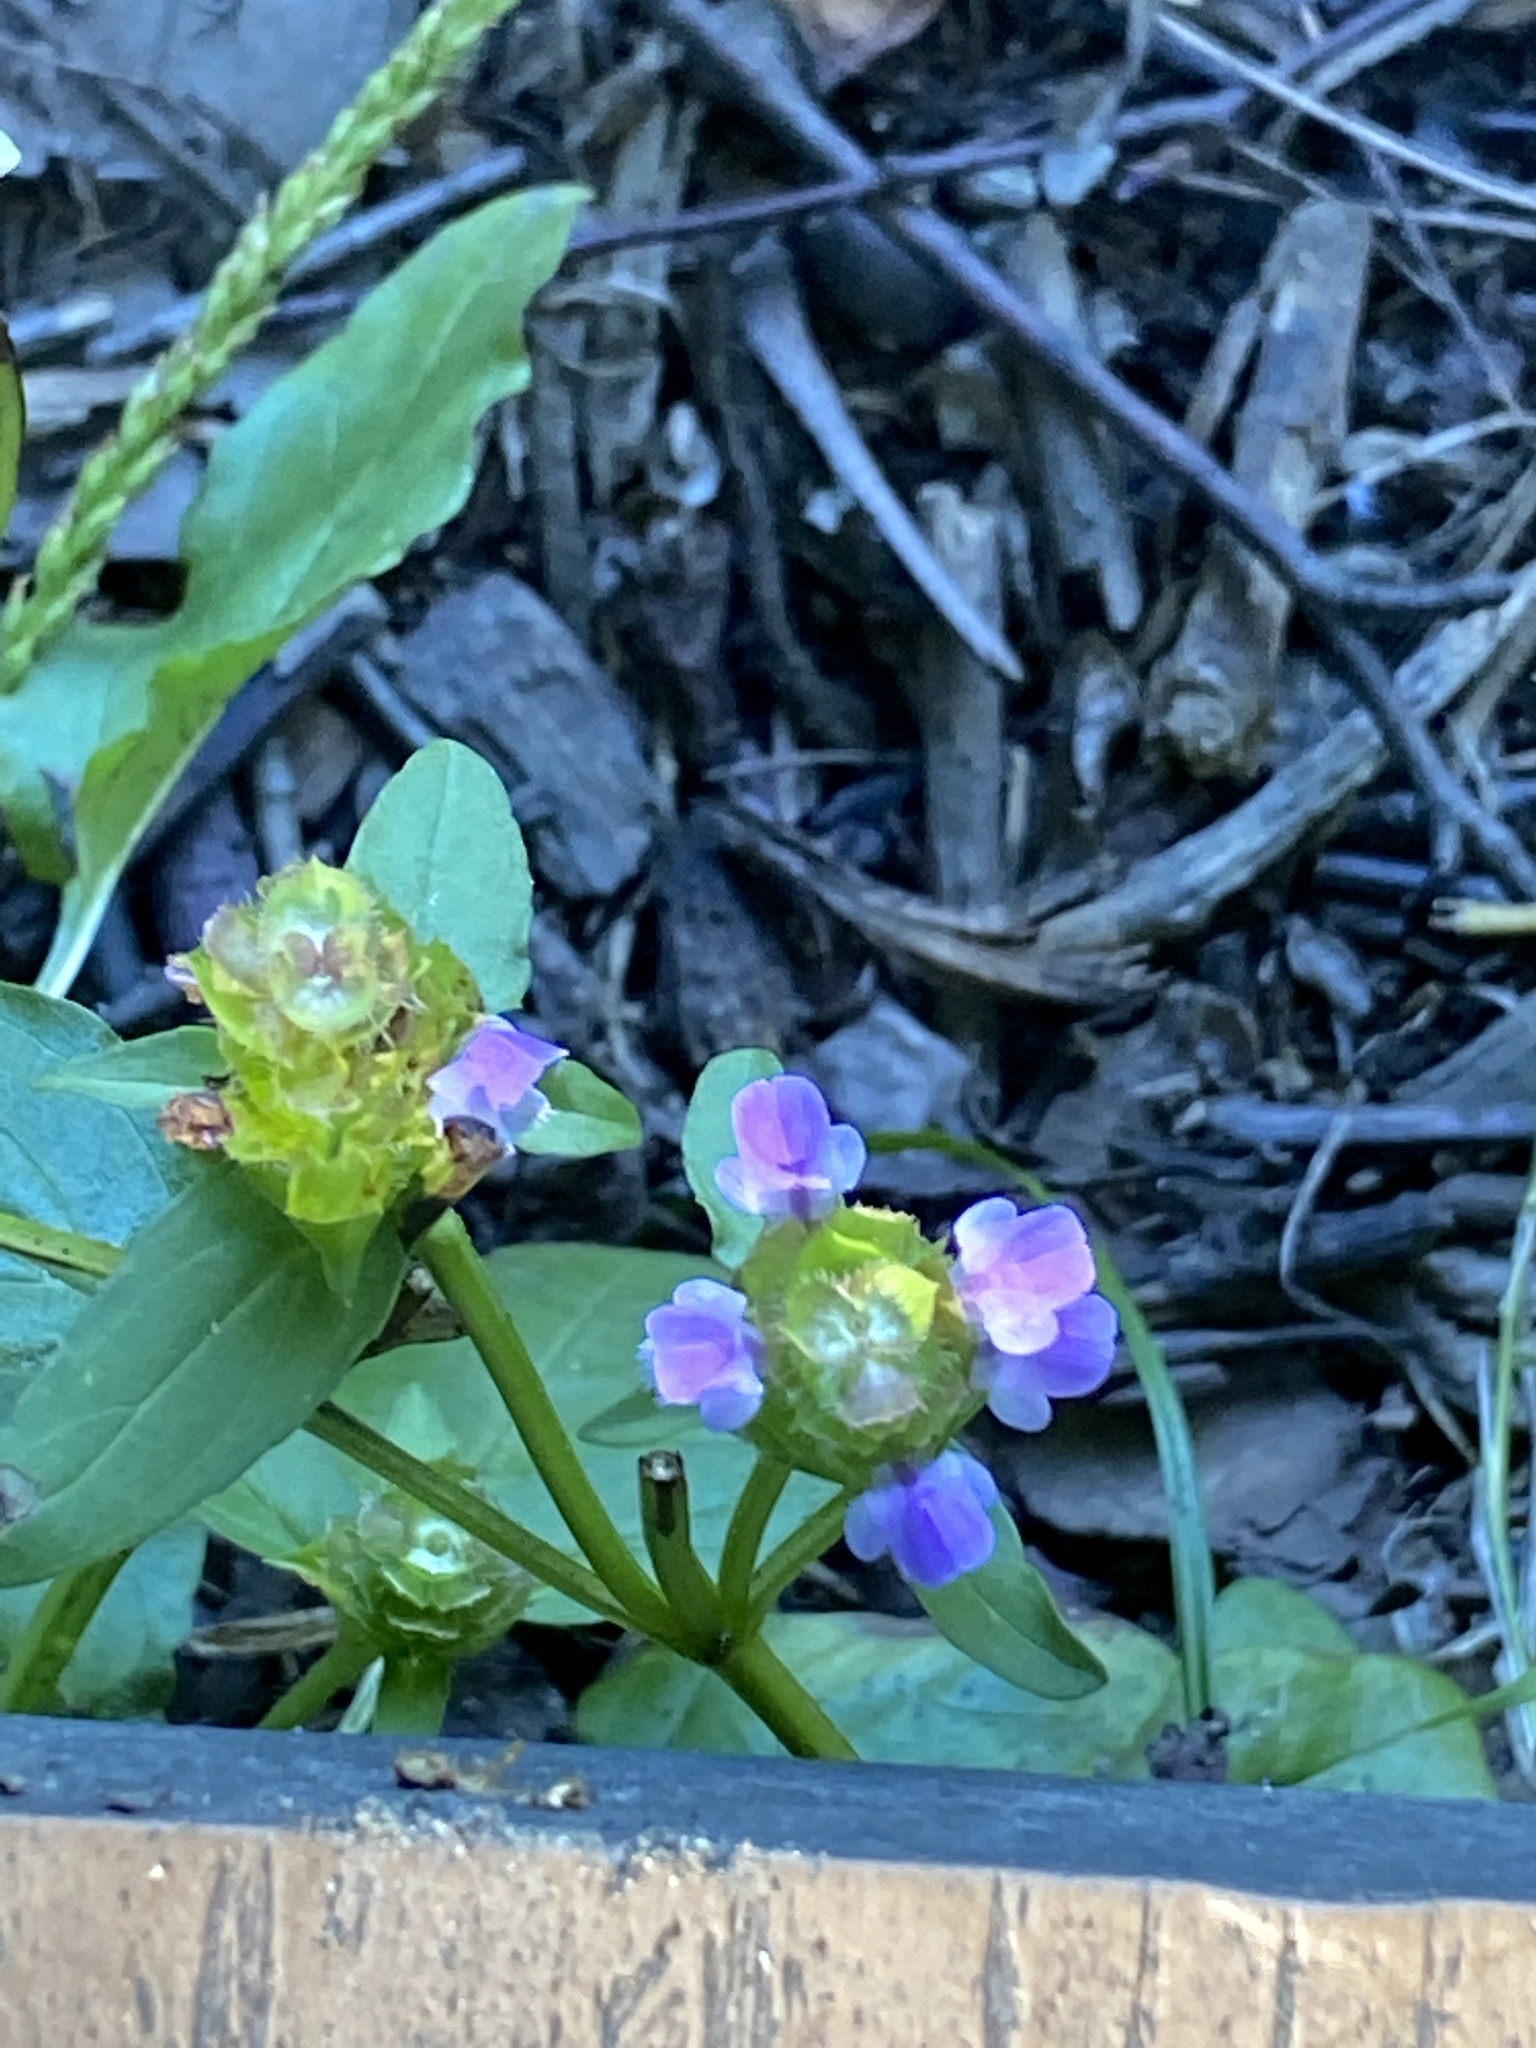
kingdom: Plantae
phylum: Tracheophyta
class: Magnoliopsida
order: Lamiales
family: Lamiaceae
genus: Prunella
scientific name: Prunella vulgaris
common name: Heal-all
